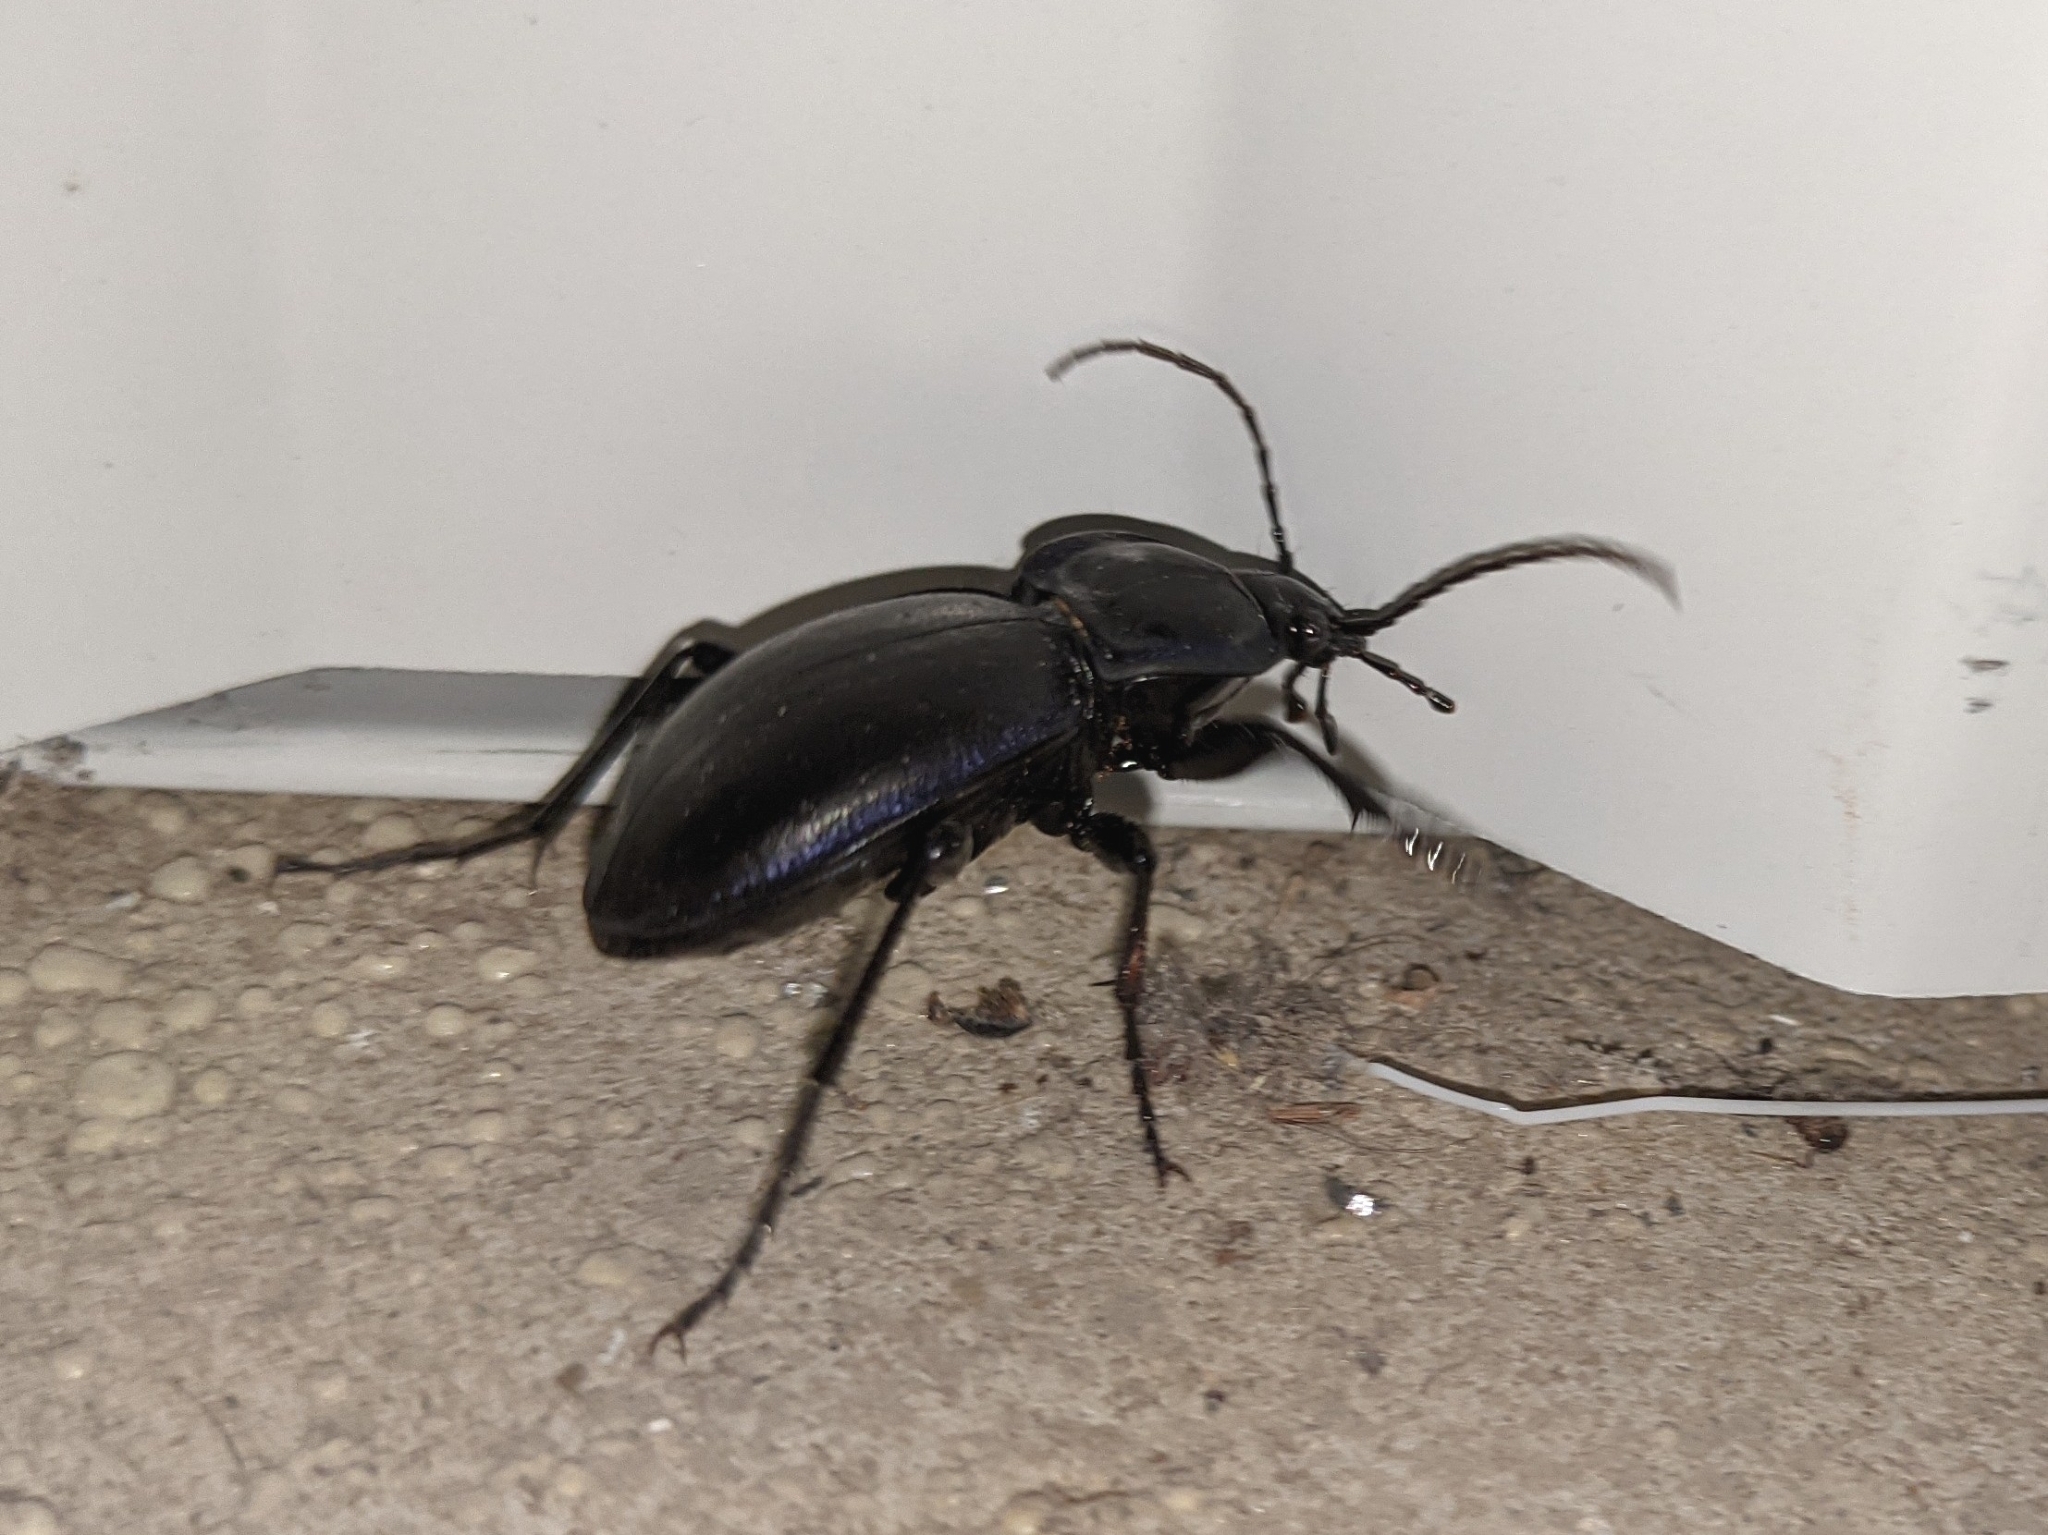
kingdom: Animalia
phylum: Arthropoda
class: Insecta
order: Coleoptera
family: Carabidae
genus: Carabus
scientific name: Carabus finitimus
